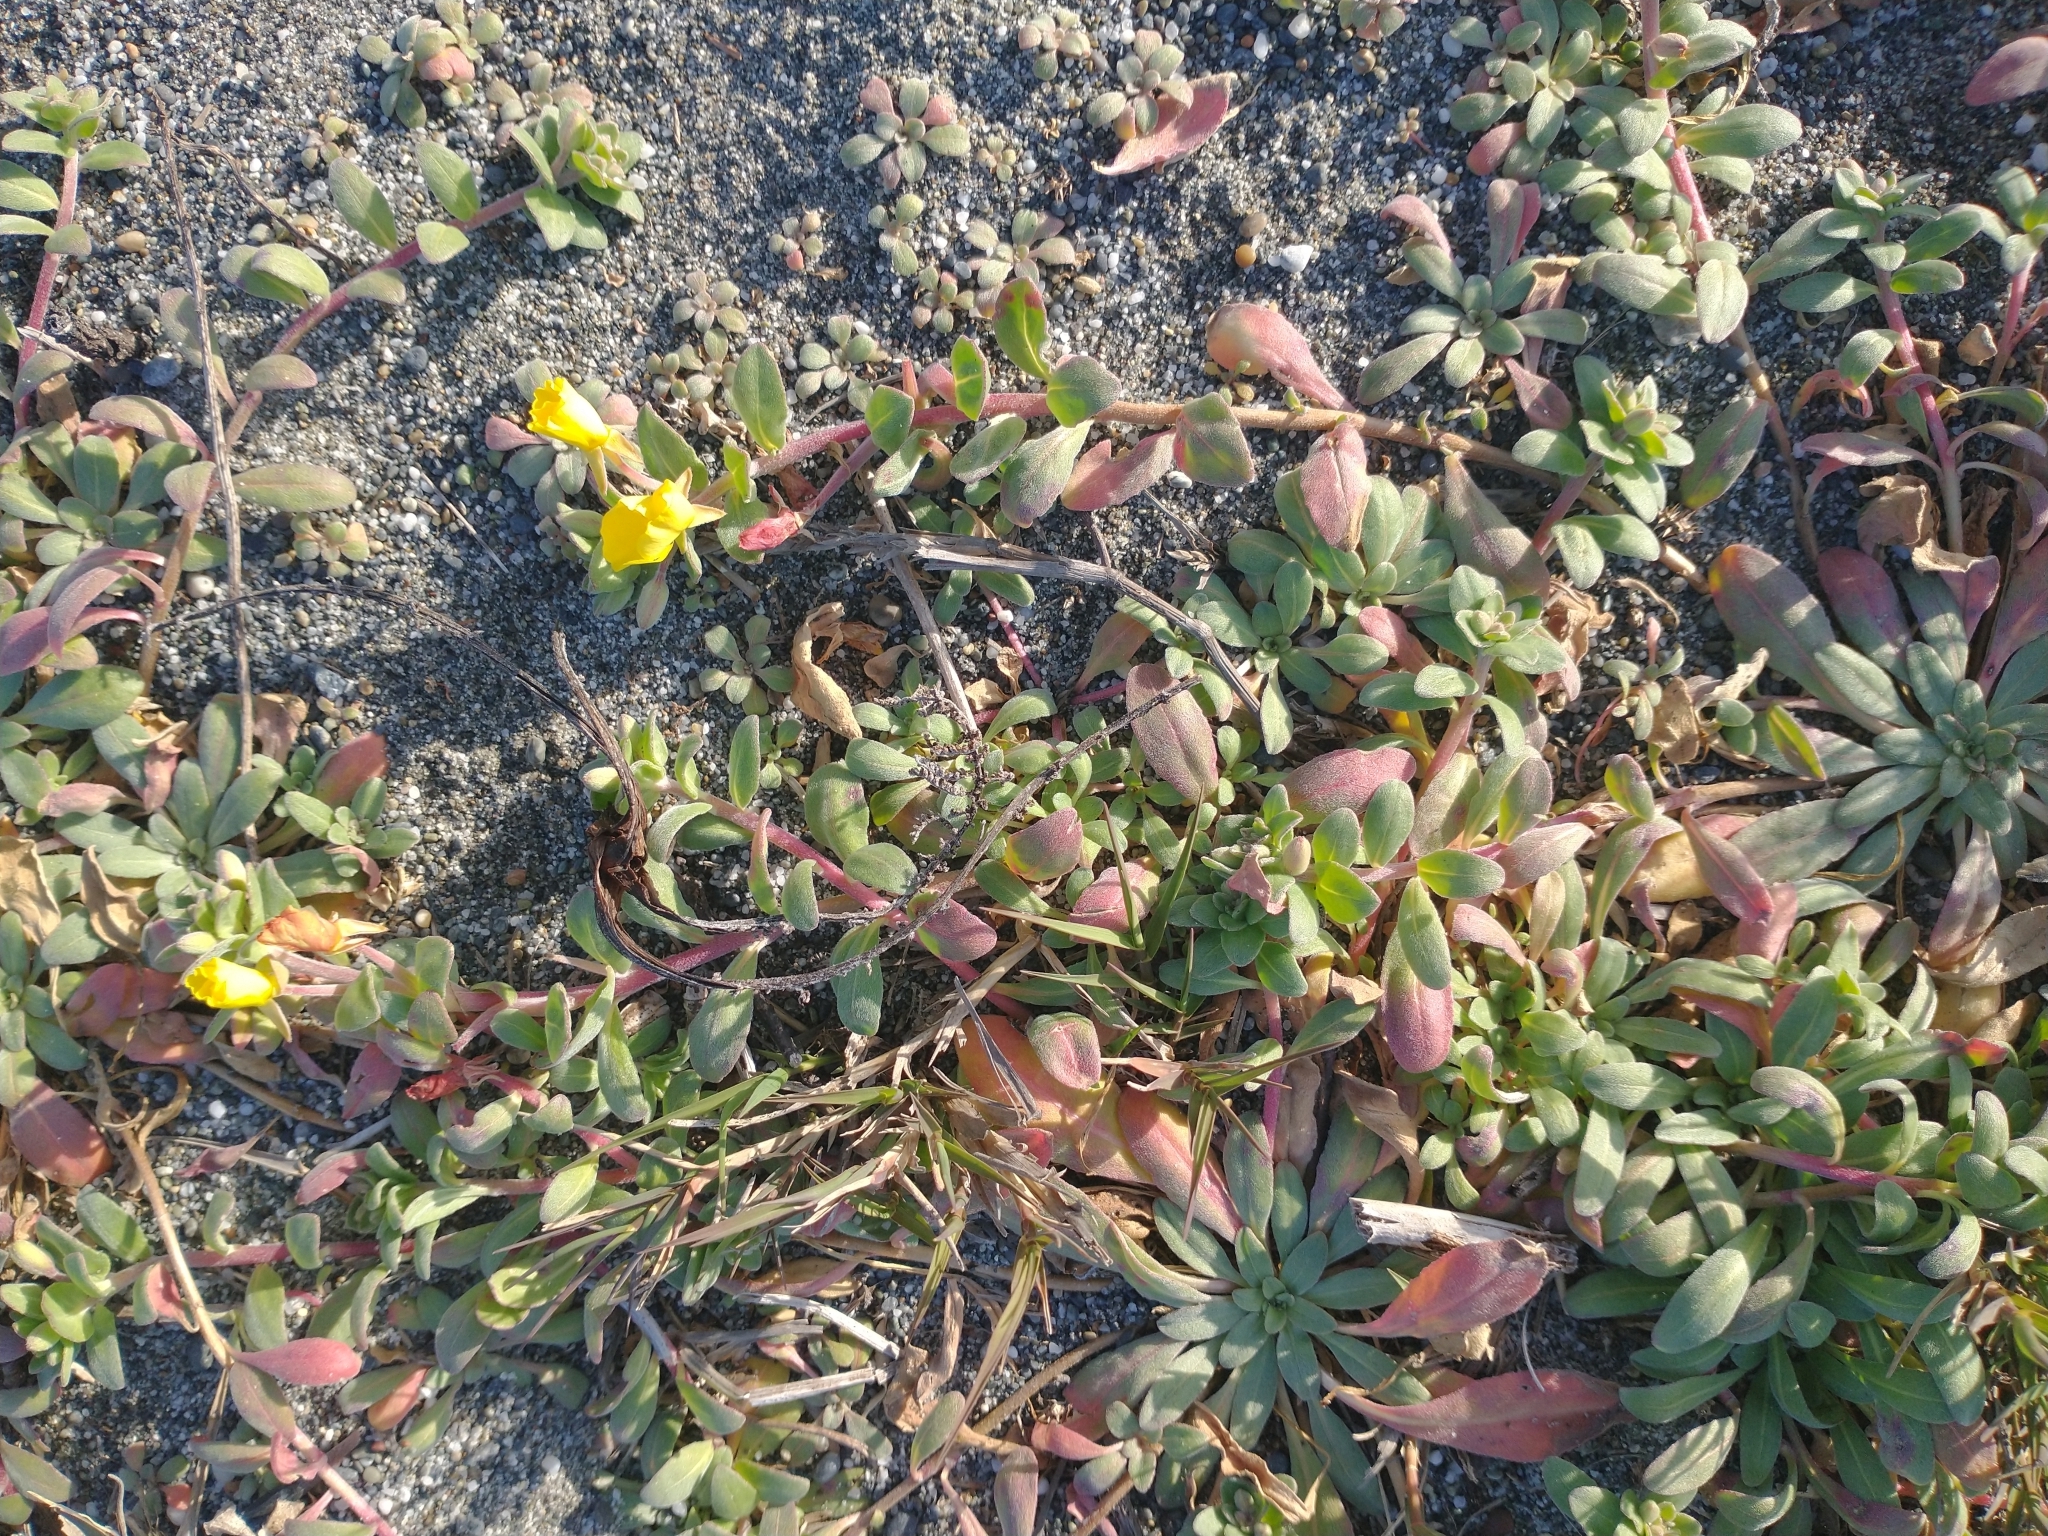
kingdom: Plantae
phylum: Tracheophyta
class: Magnoliopsida
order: Myrtales
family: Onagraceae
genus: Camissoniopsis
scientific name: Camissoniopsis cheiranthifolia
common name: Beach suncup
